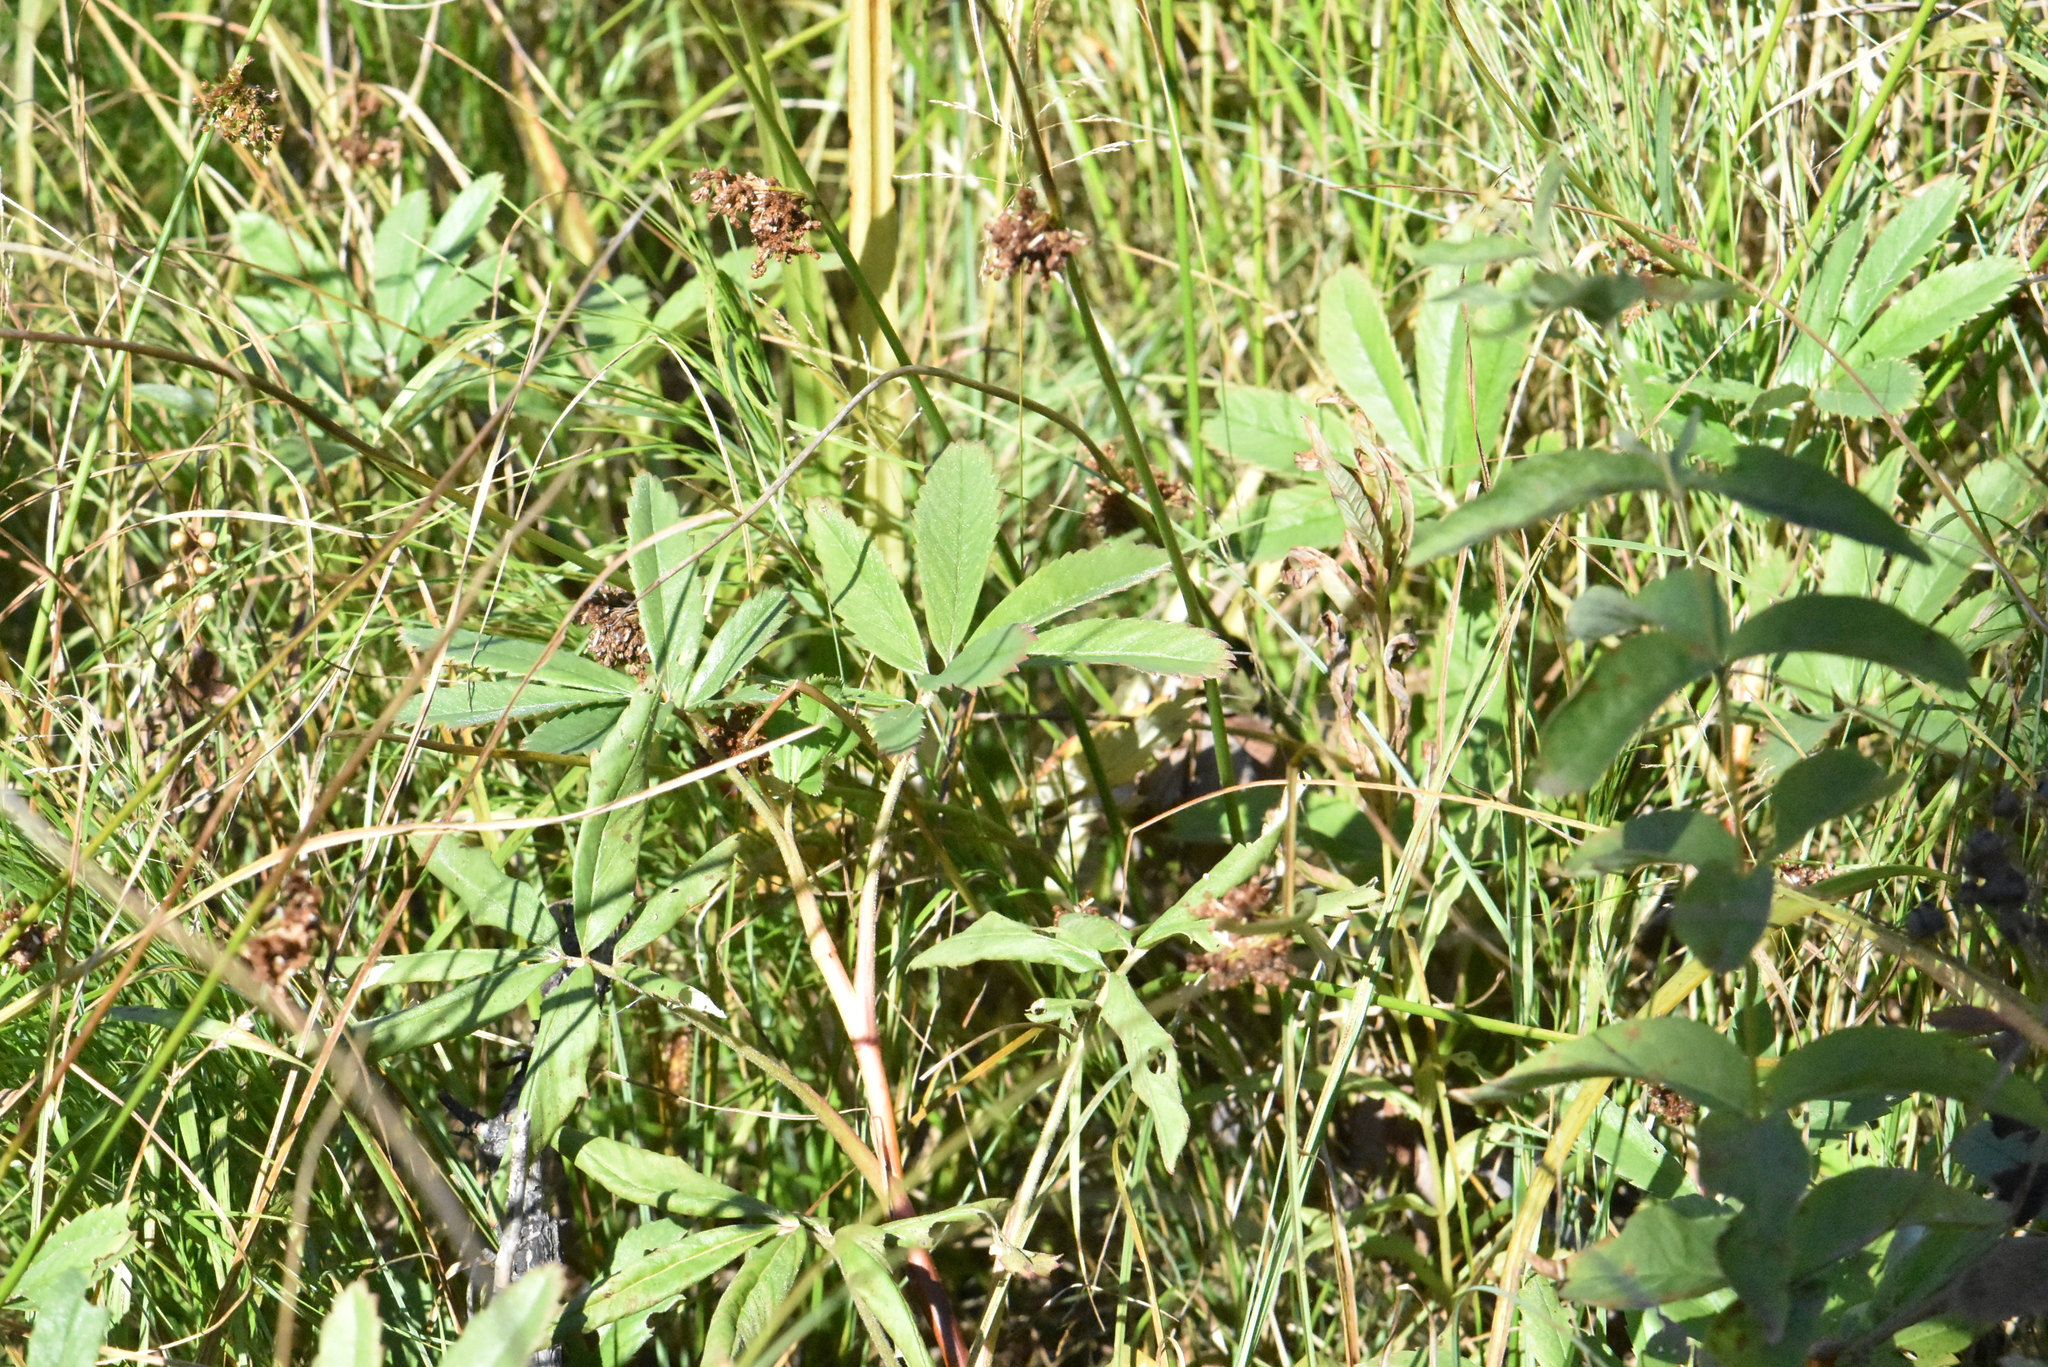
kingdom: Plantae
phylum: Tracheophyta
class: Magnoliopsida
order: Rosales
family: Rosaceae
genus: Comarum
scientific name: Comarum palustre
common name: Marsh cinquefoil
